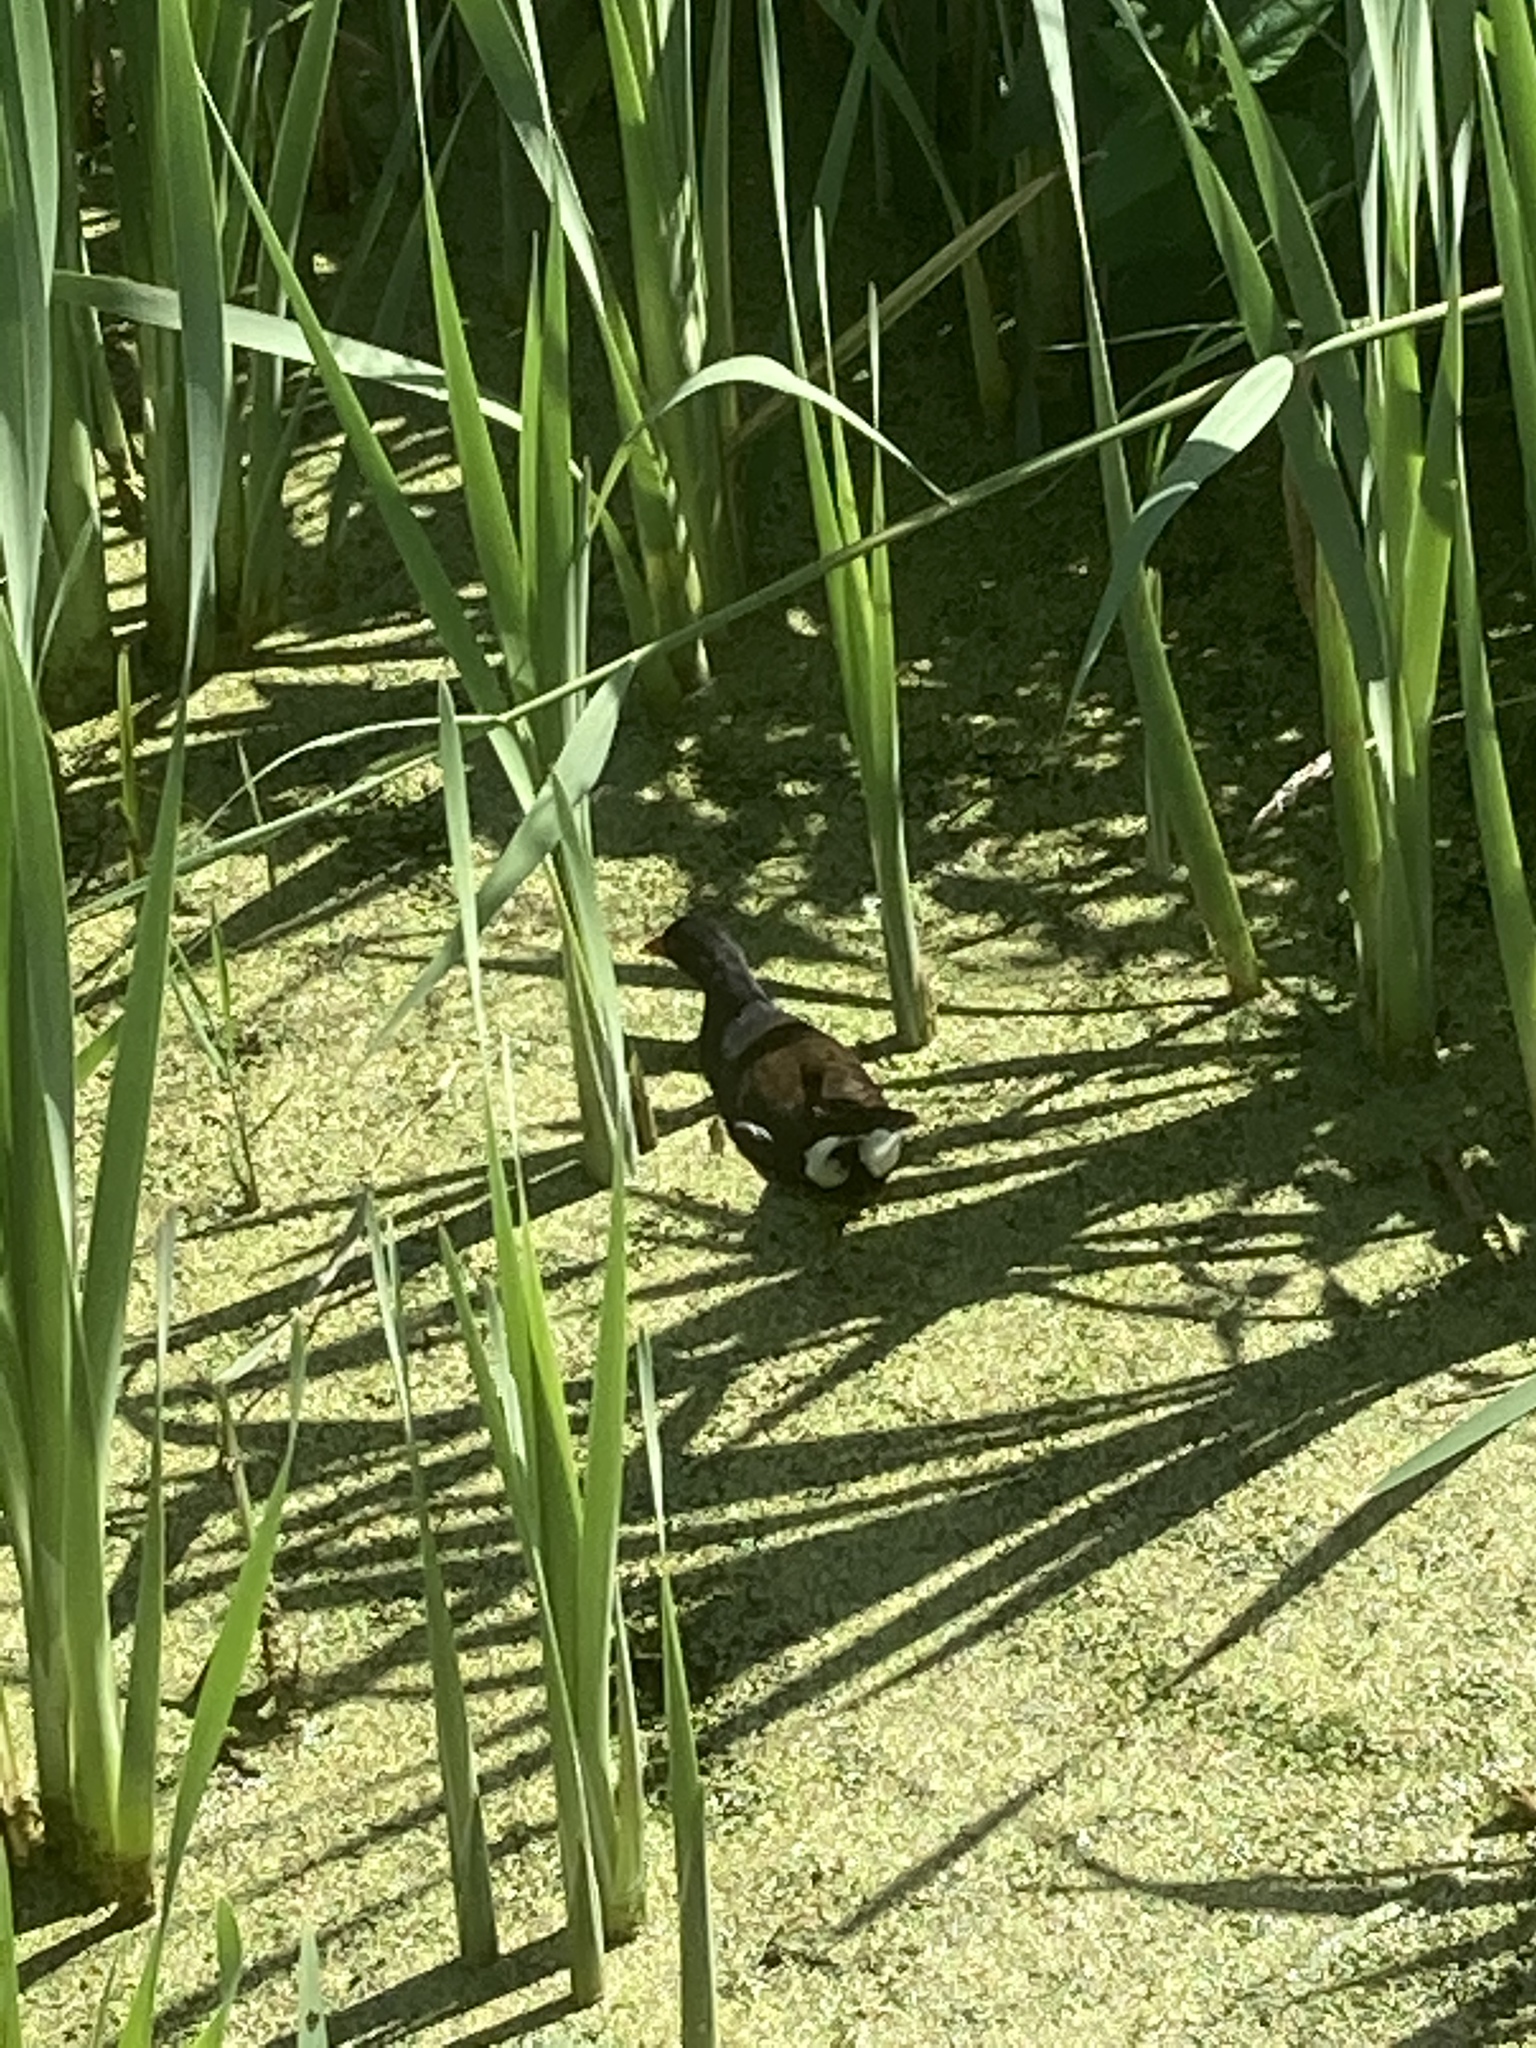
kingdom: Animalia
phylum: Chordata
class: Aves
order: Gruiformes
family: Rallidae
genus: Gallinula
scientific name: Gallinula chloropus
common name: Common moorhen
